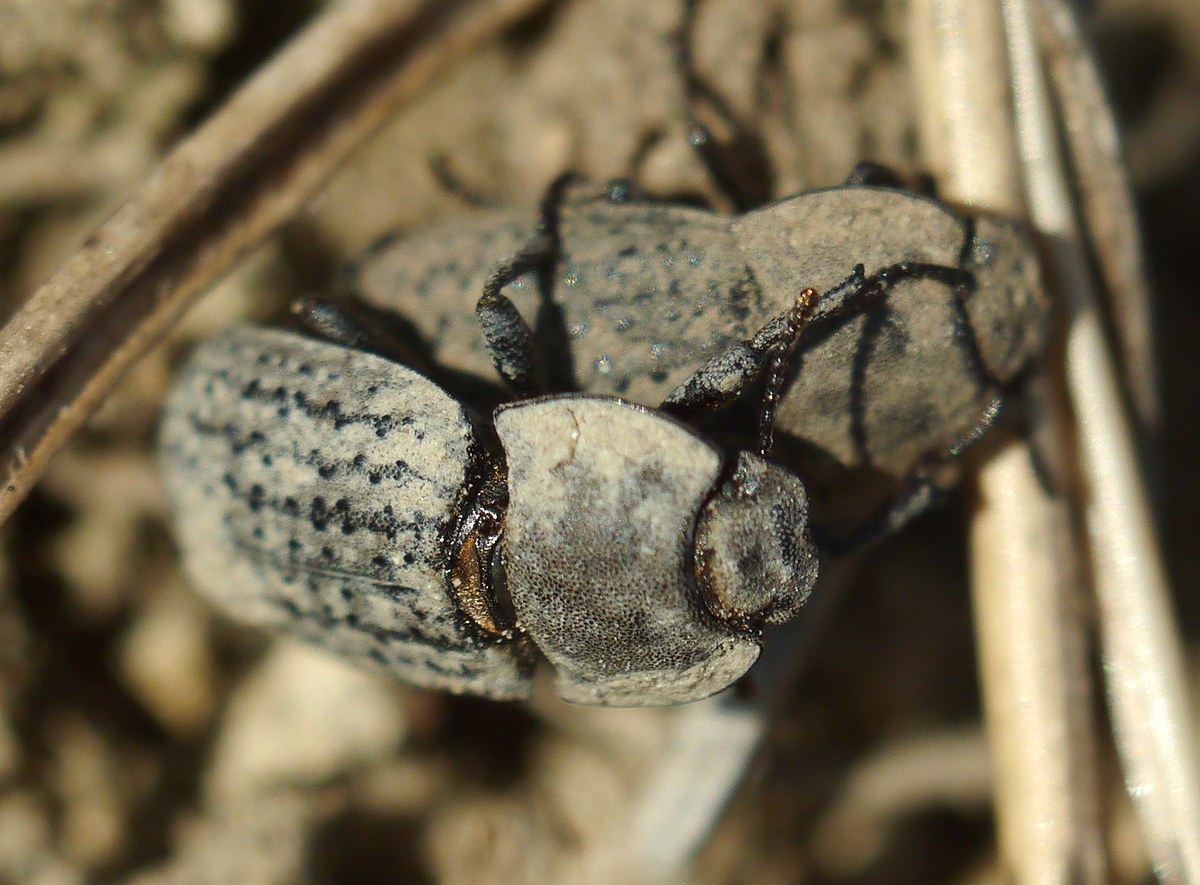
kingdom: Animalia
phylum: Arthropoda
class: Insecta
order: Coleoptera
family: Tenebrionidae
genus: Opatrum
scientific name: Opatrum sabulosum
